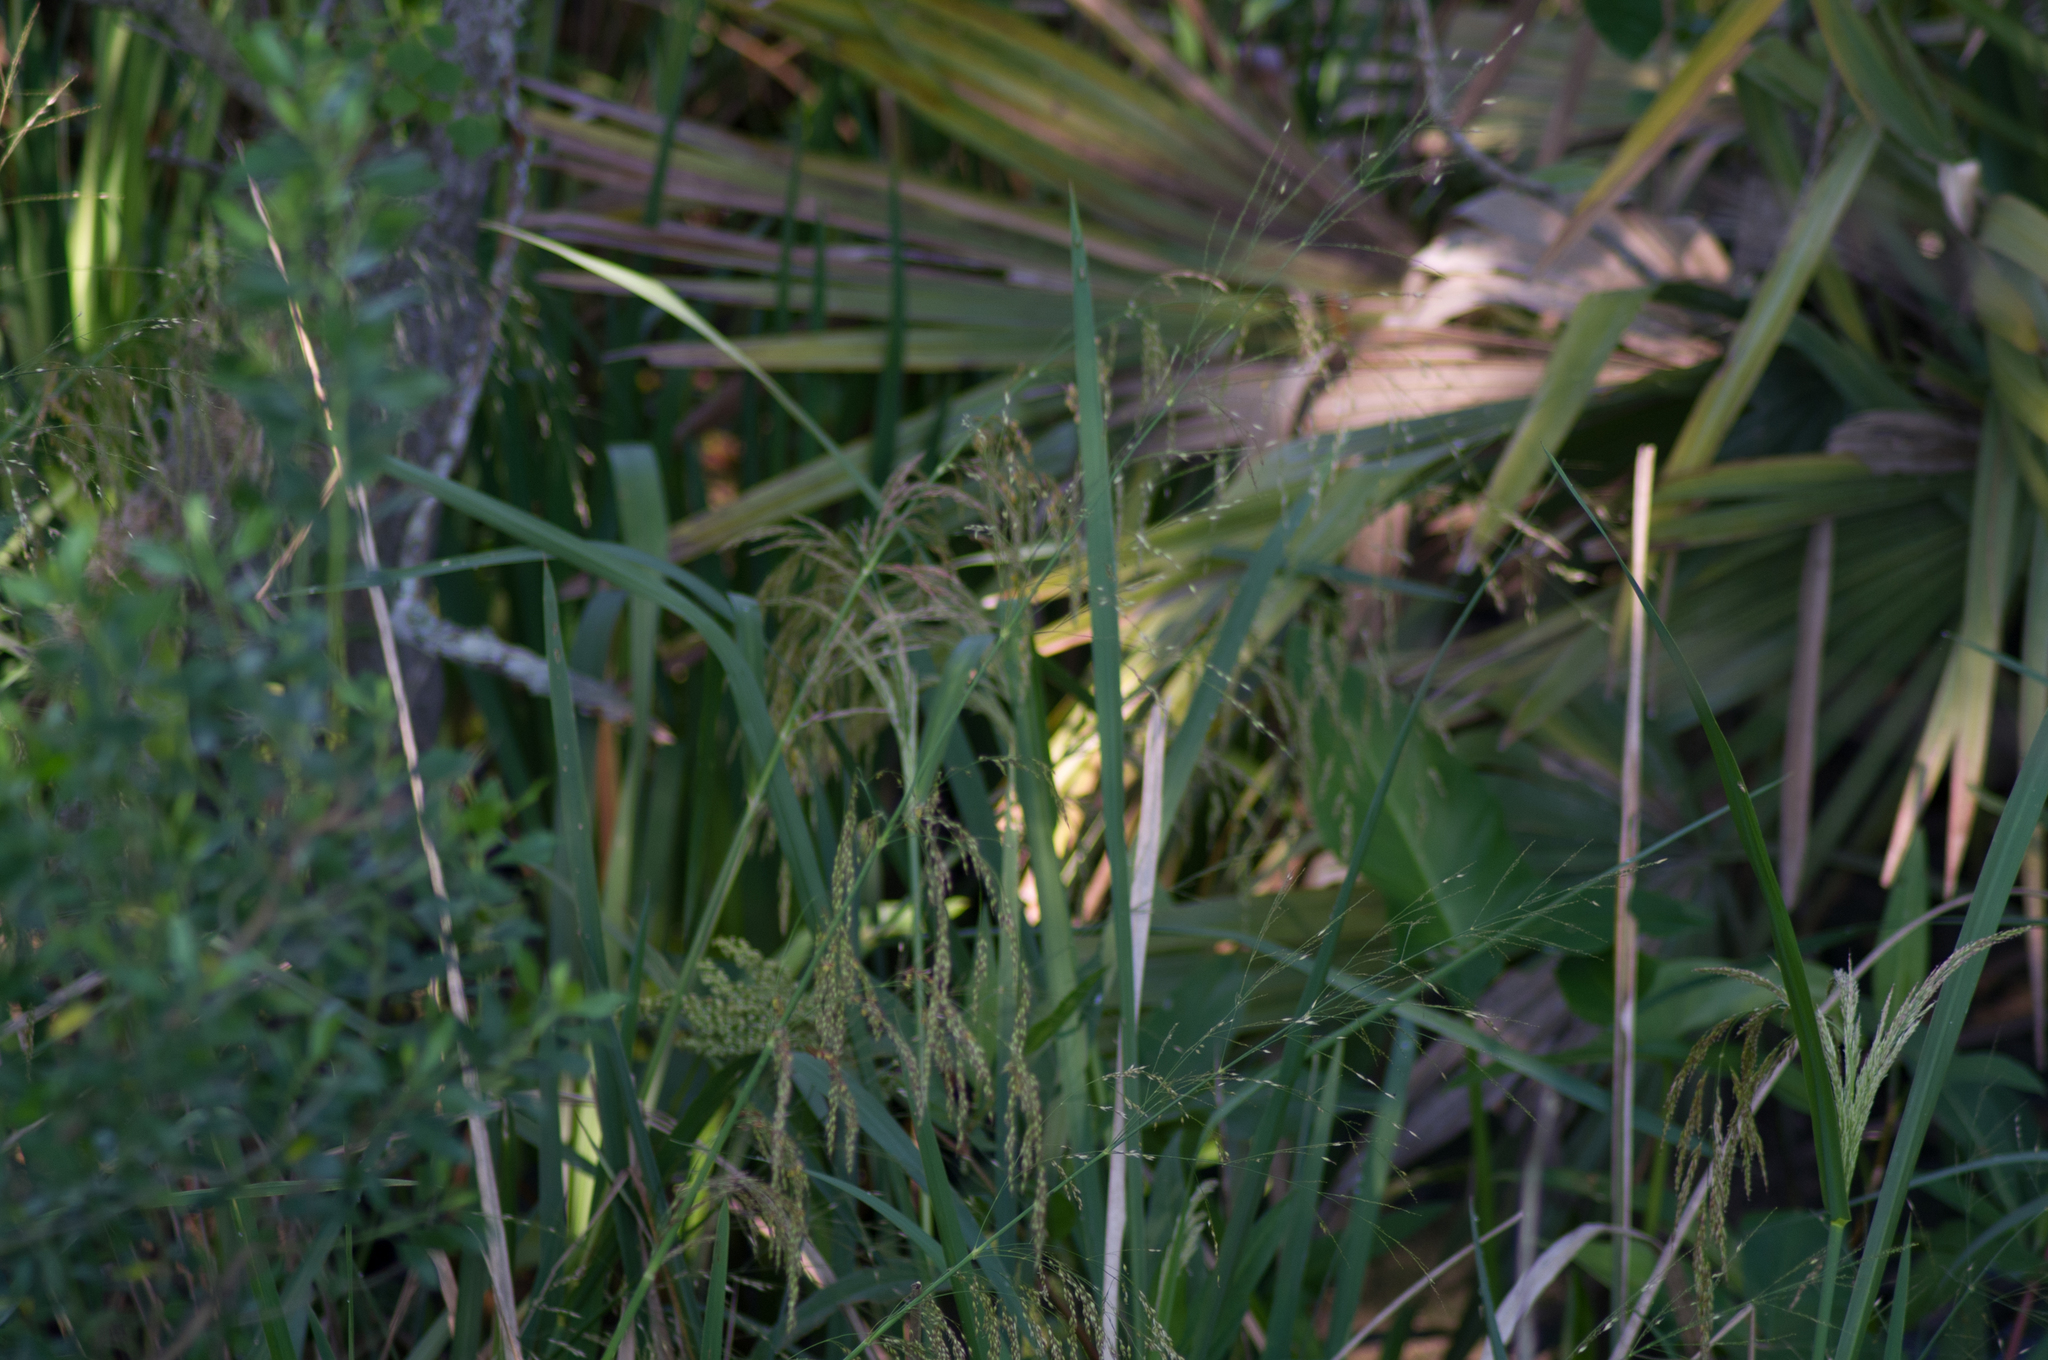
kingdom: Plantae
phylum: Tracheophyta
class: Liliopsida
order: Poales
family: Poaceae
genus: Zizaniopsis
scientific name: Zizaniopsis miliacea
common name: Giant-cutgrass
